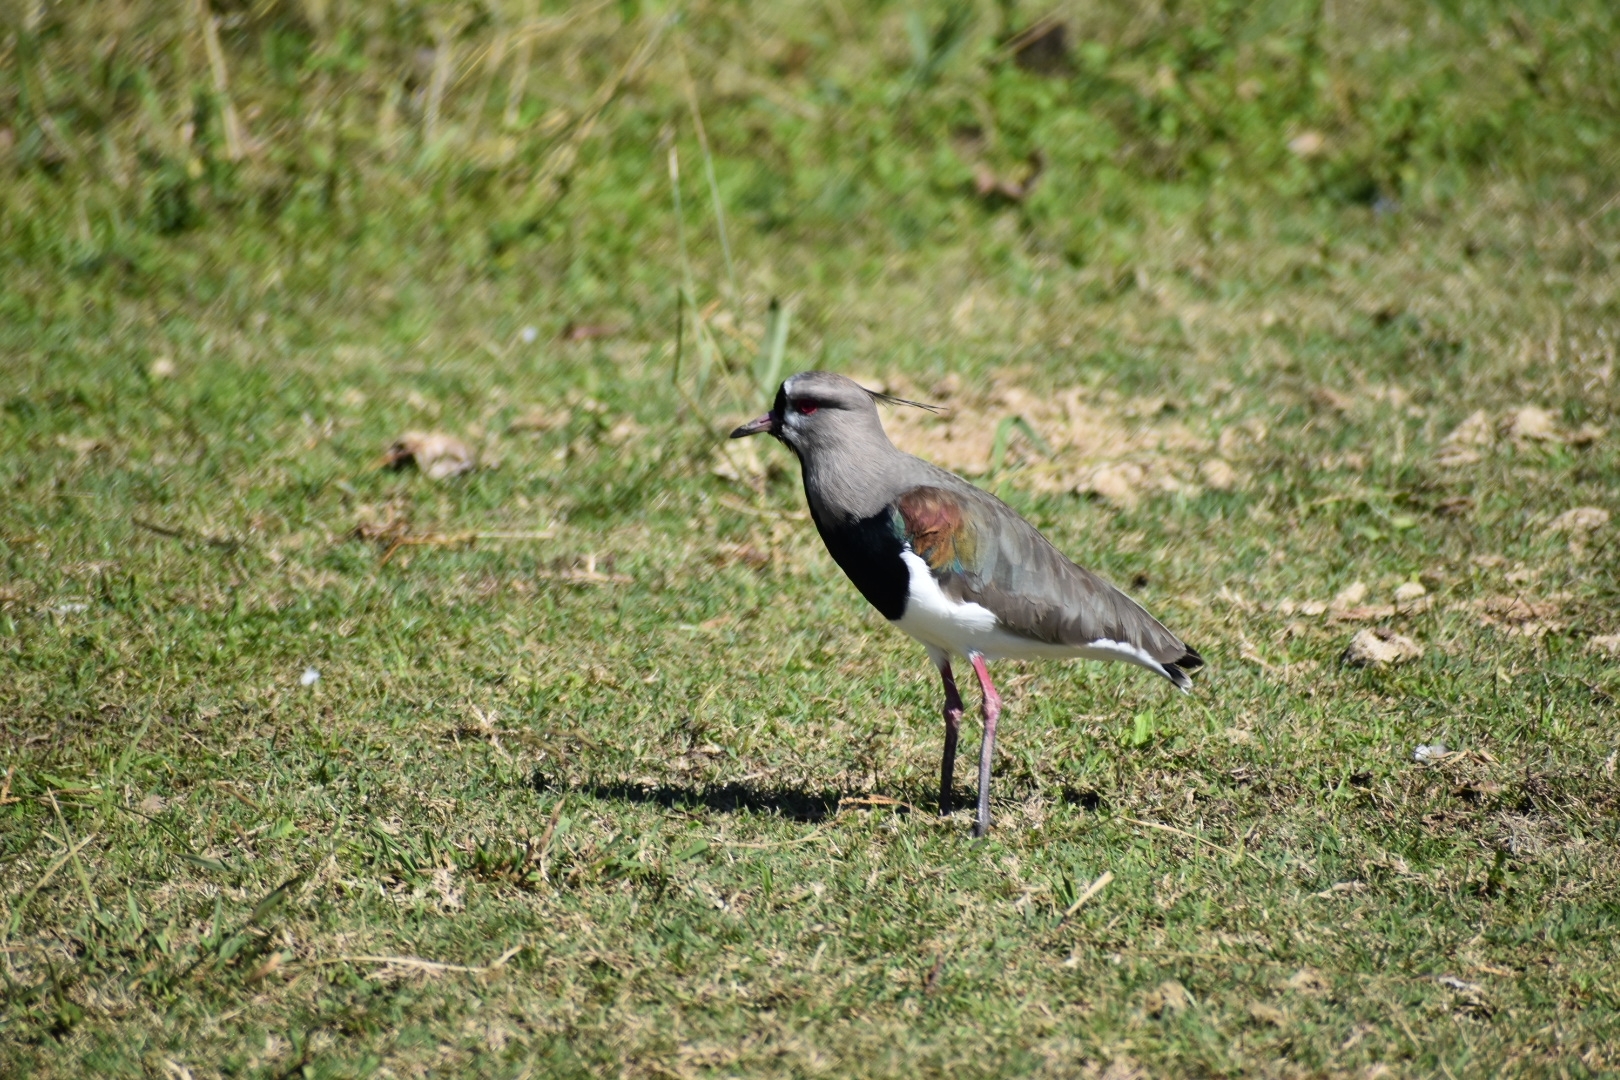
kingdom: Animalia
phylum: Chordata
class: Aves
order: Charadriiformes
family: Charadriidae
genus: Vanellus
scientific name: Vanellus chilensis
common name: Southern lapwing
